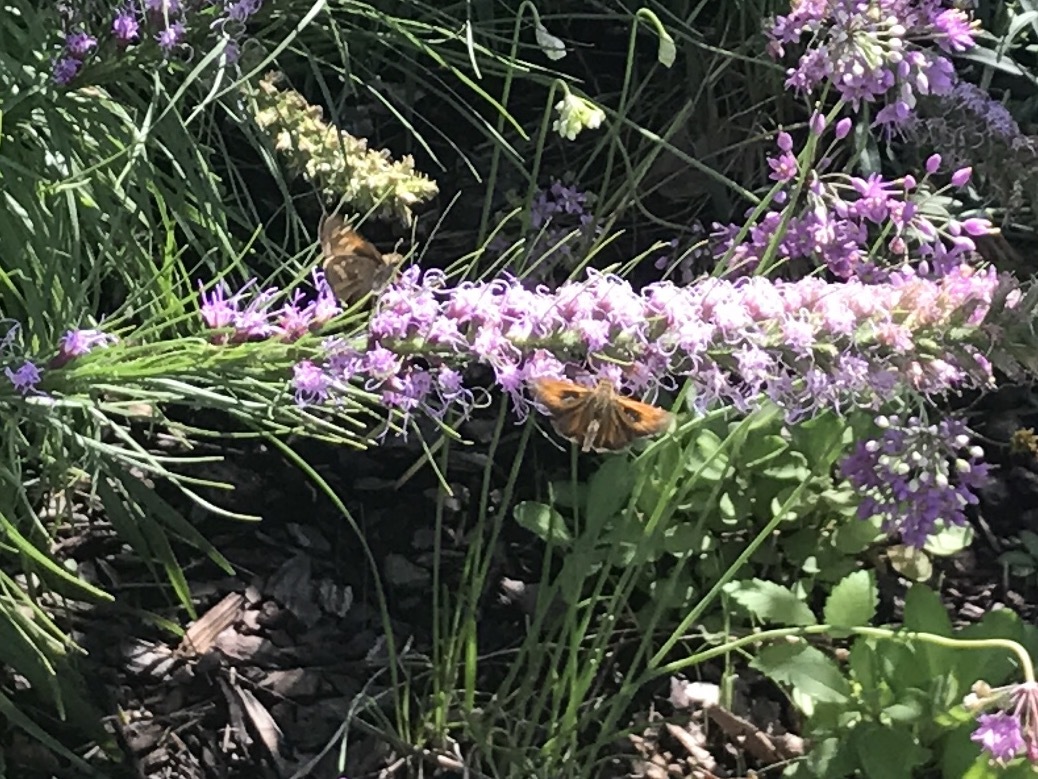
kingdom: Animalia
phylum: Arthropoda
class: Insecta
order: Lepidoptera
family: Hesperiidae
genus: Atalopedes
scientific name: Atalopedes
